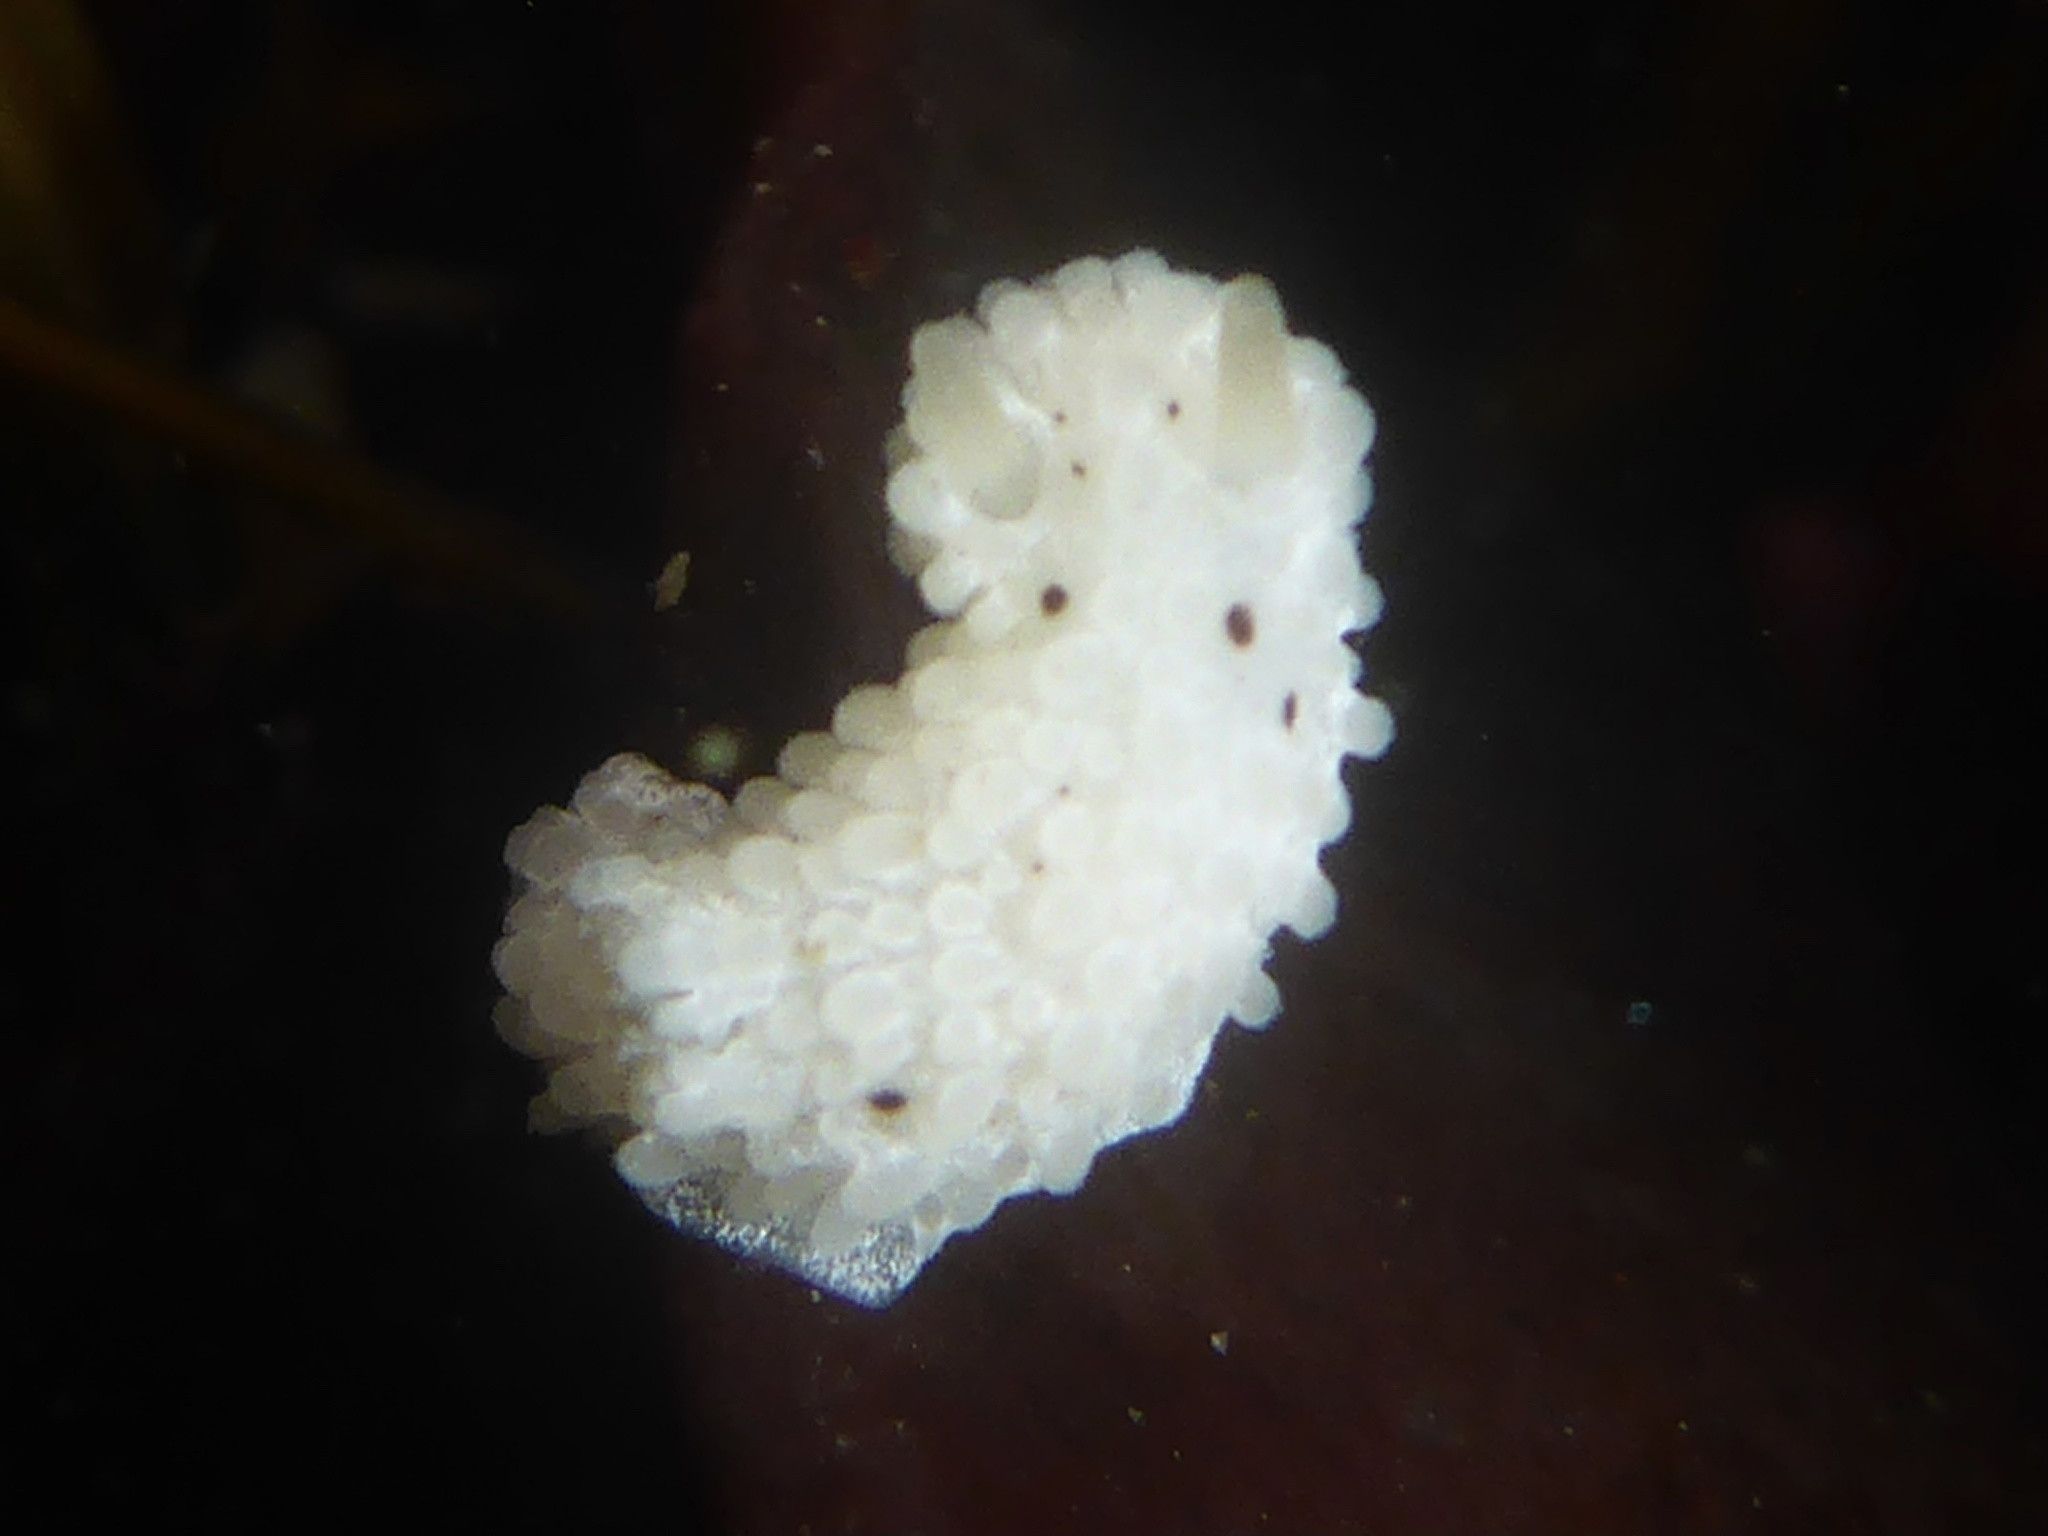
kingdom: Animalia
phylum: Mollusca
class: Gastropoda
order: Nudibranchia
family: Aegiridae
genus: Aegires
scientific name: Aegires albopunctatus
